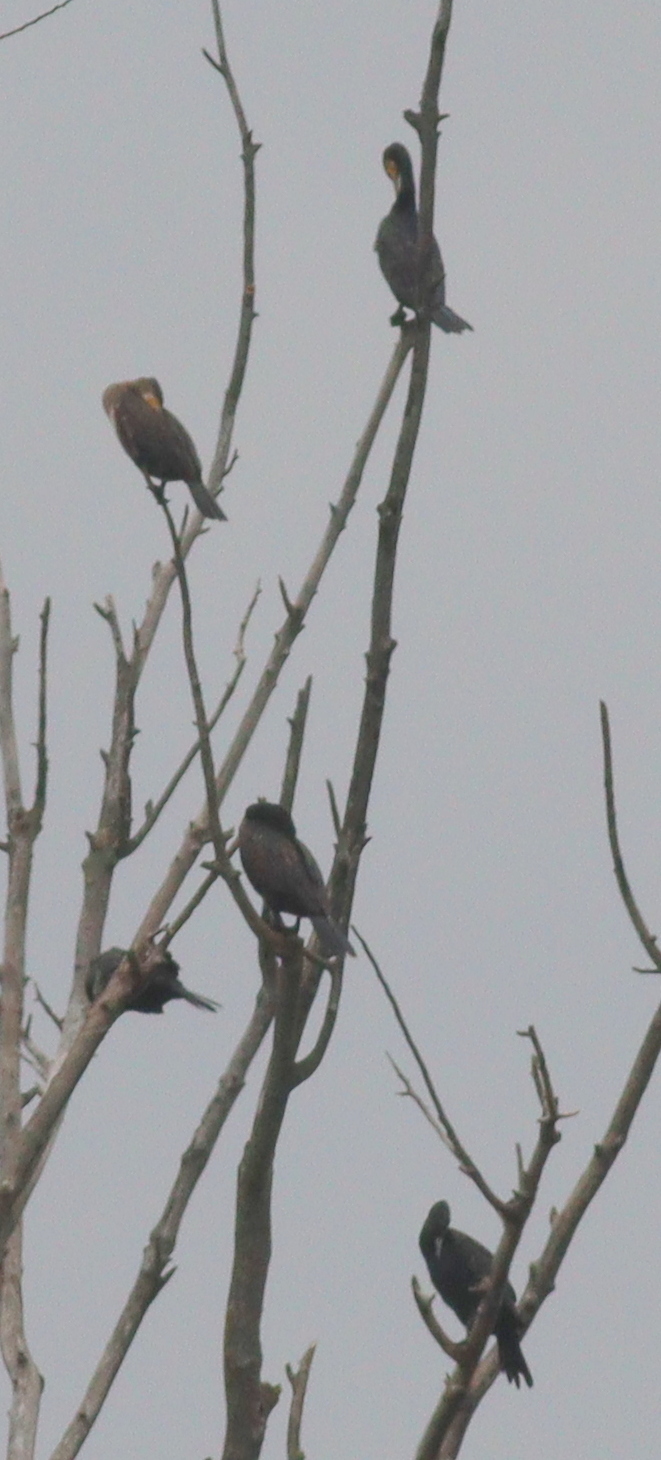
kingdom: Animalia
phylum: Chordata
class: Aves
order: Suliformes
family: Phalacrocoracidae
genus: Phalacrocorax
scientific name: Phalacrocorax carbo
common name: Great cormorant
